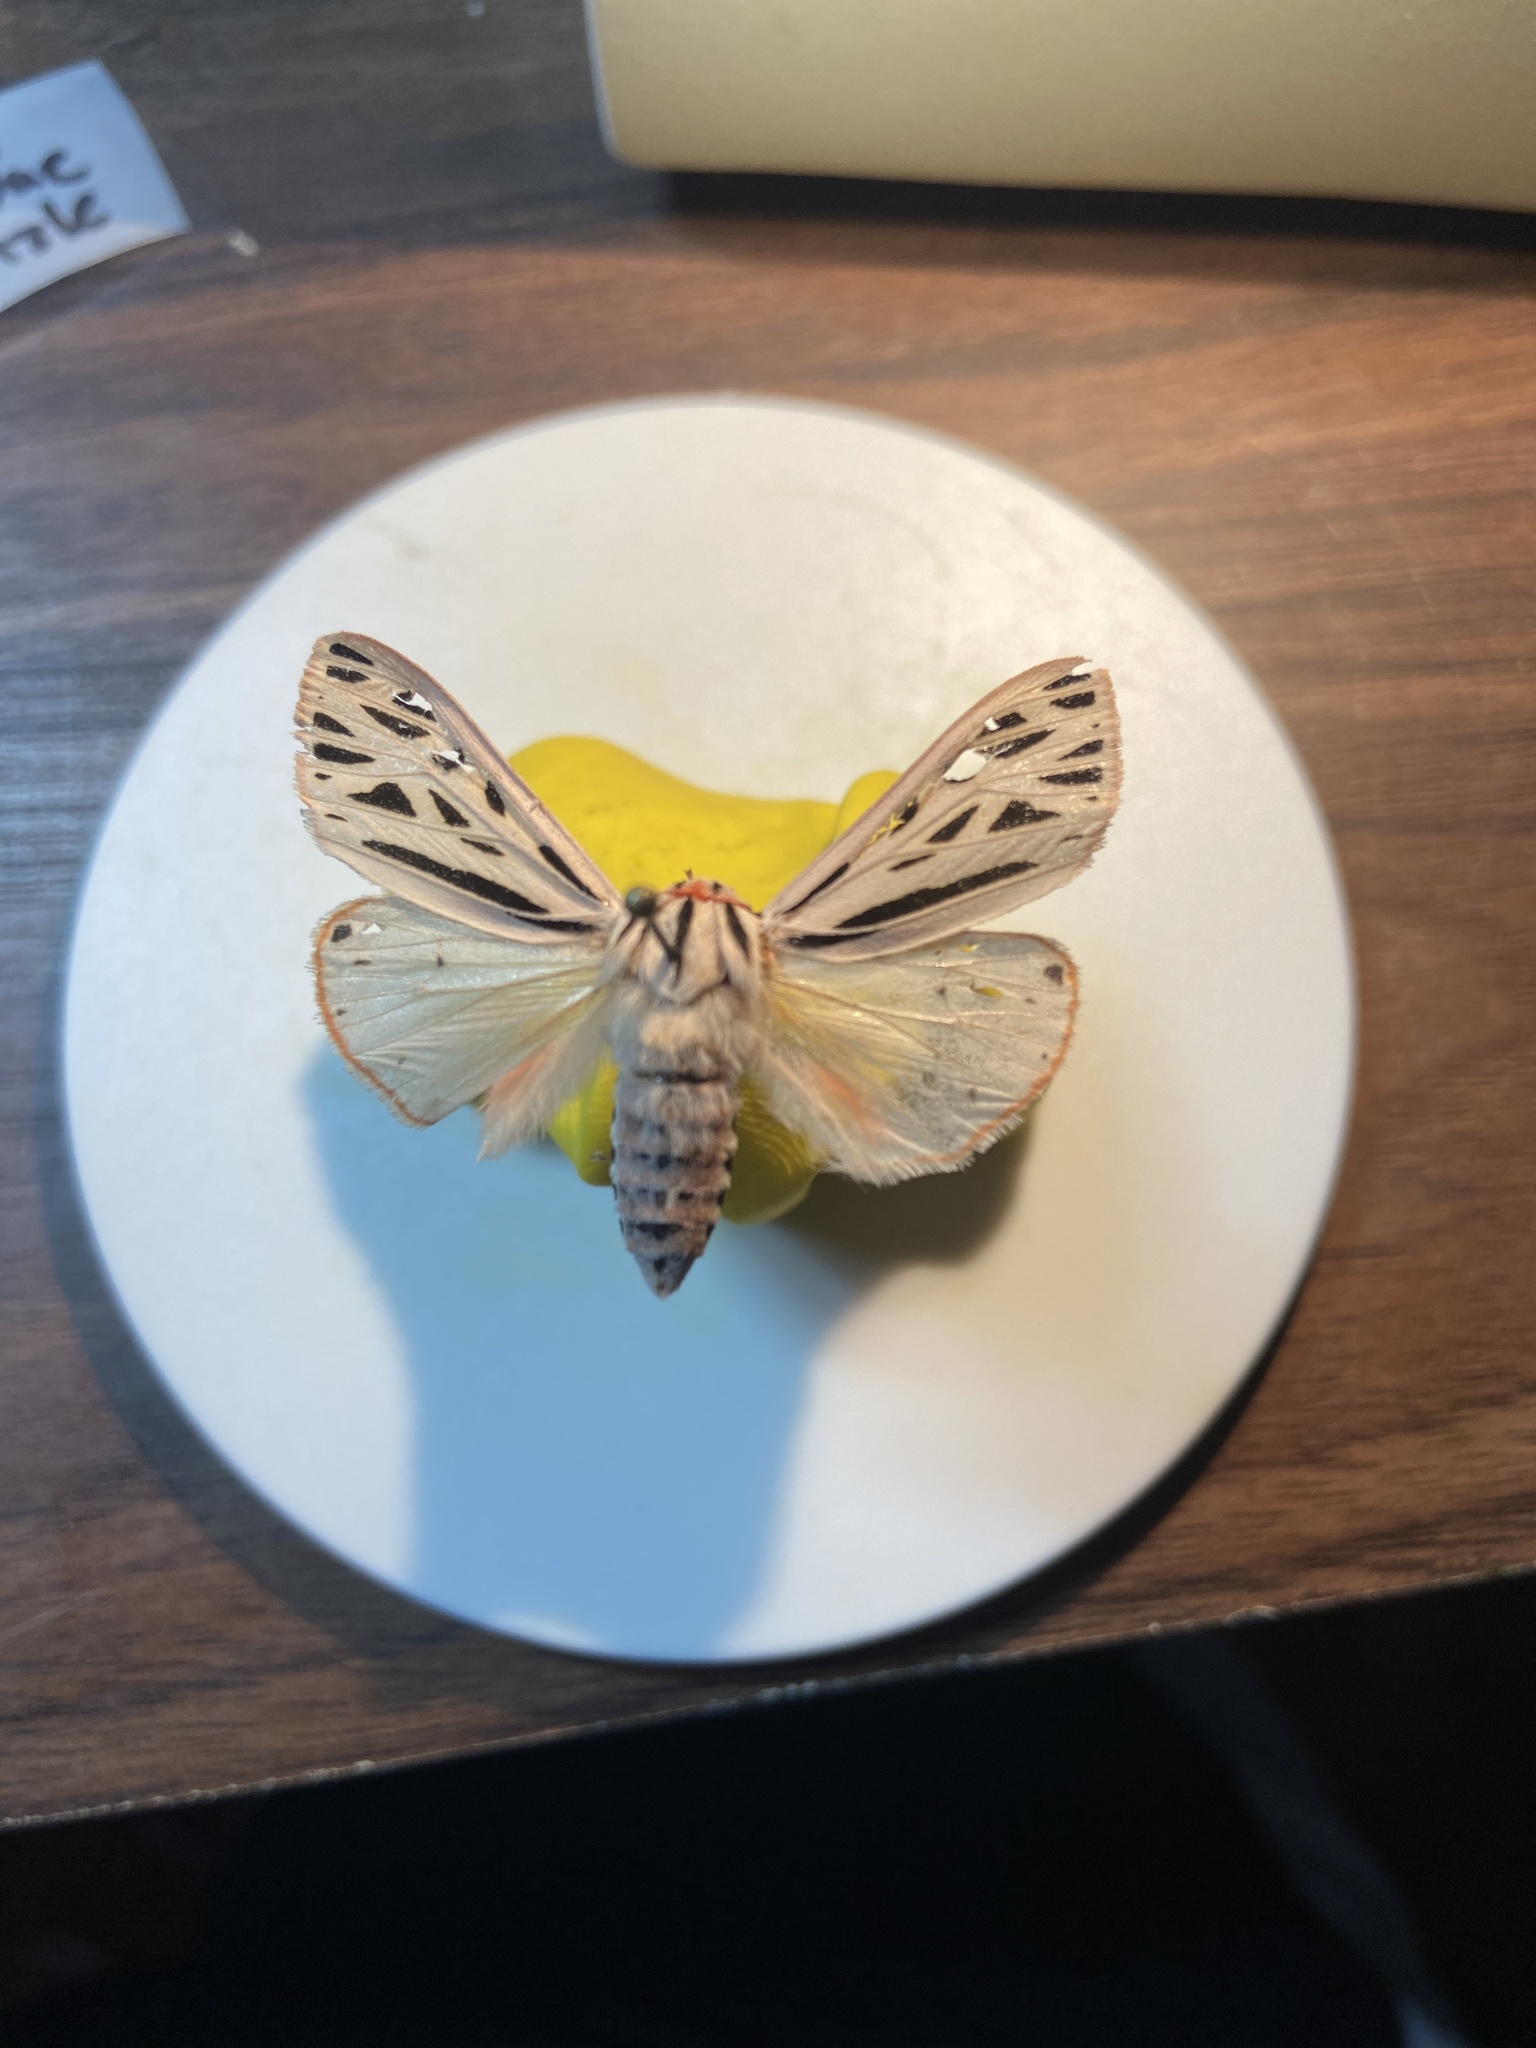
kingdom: Animalia
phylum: Arthropoda
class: Insecta
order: Lepidoptera
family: Erebidae
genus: Apantesis
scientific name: Apantesis arge
